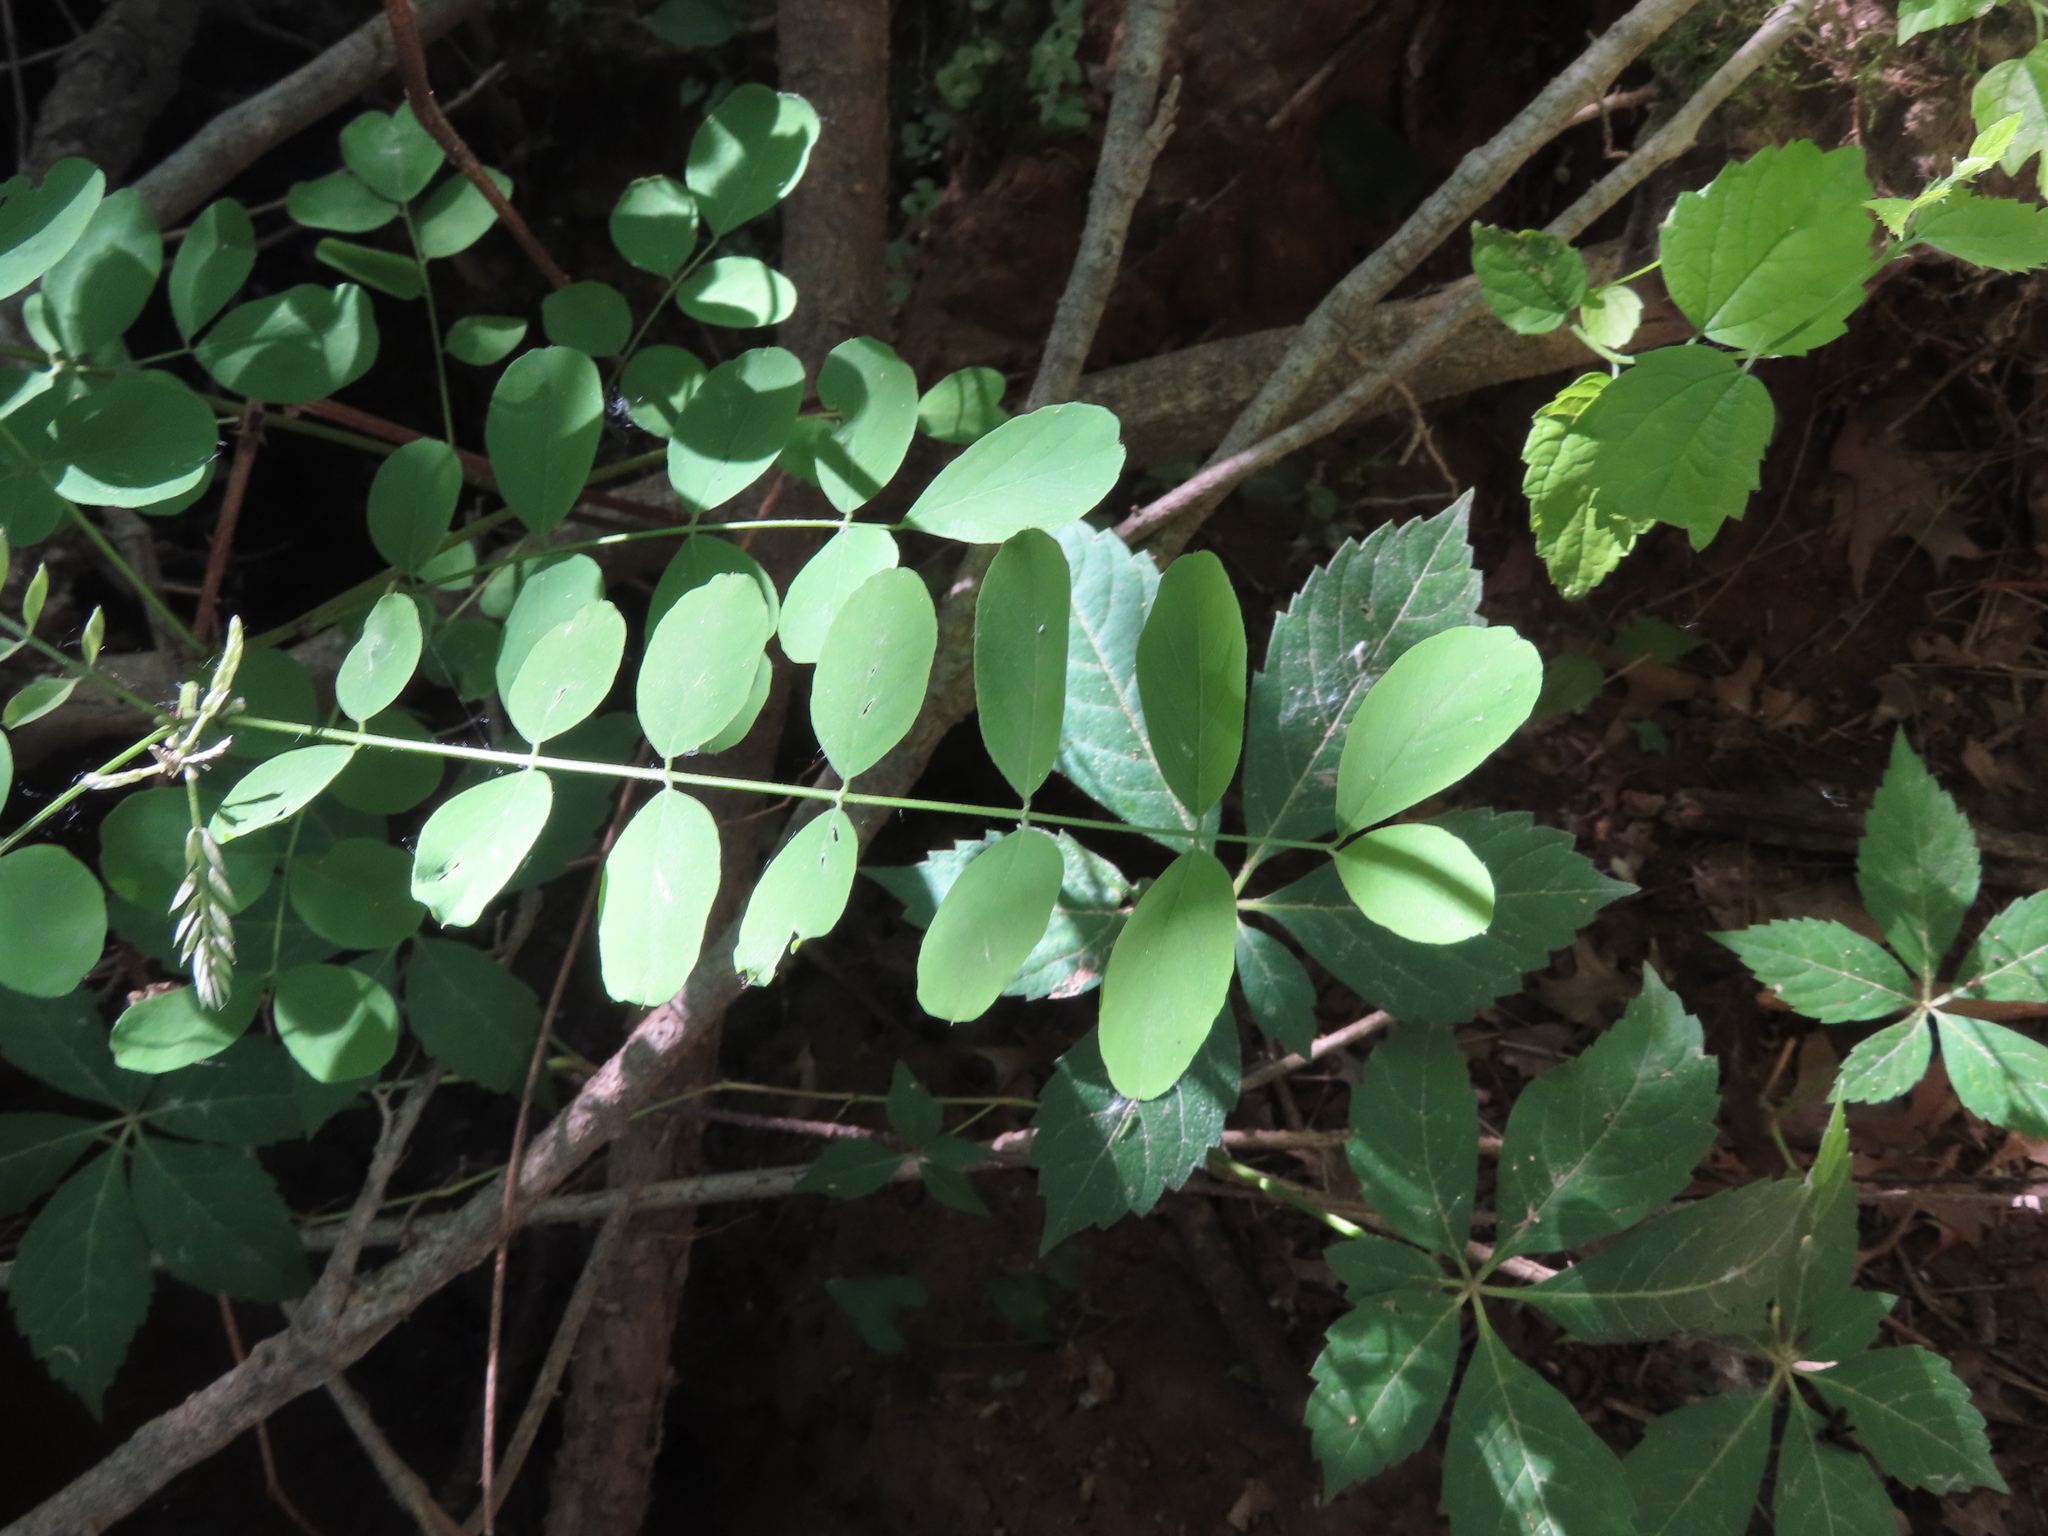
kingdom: Plantae
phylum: Tracheophyta
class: Magnoliopsida
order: Fabales
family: Fabaceae
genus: Robinia
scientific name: Robinia pseudoacacia
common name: Black locust
